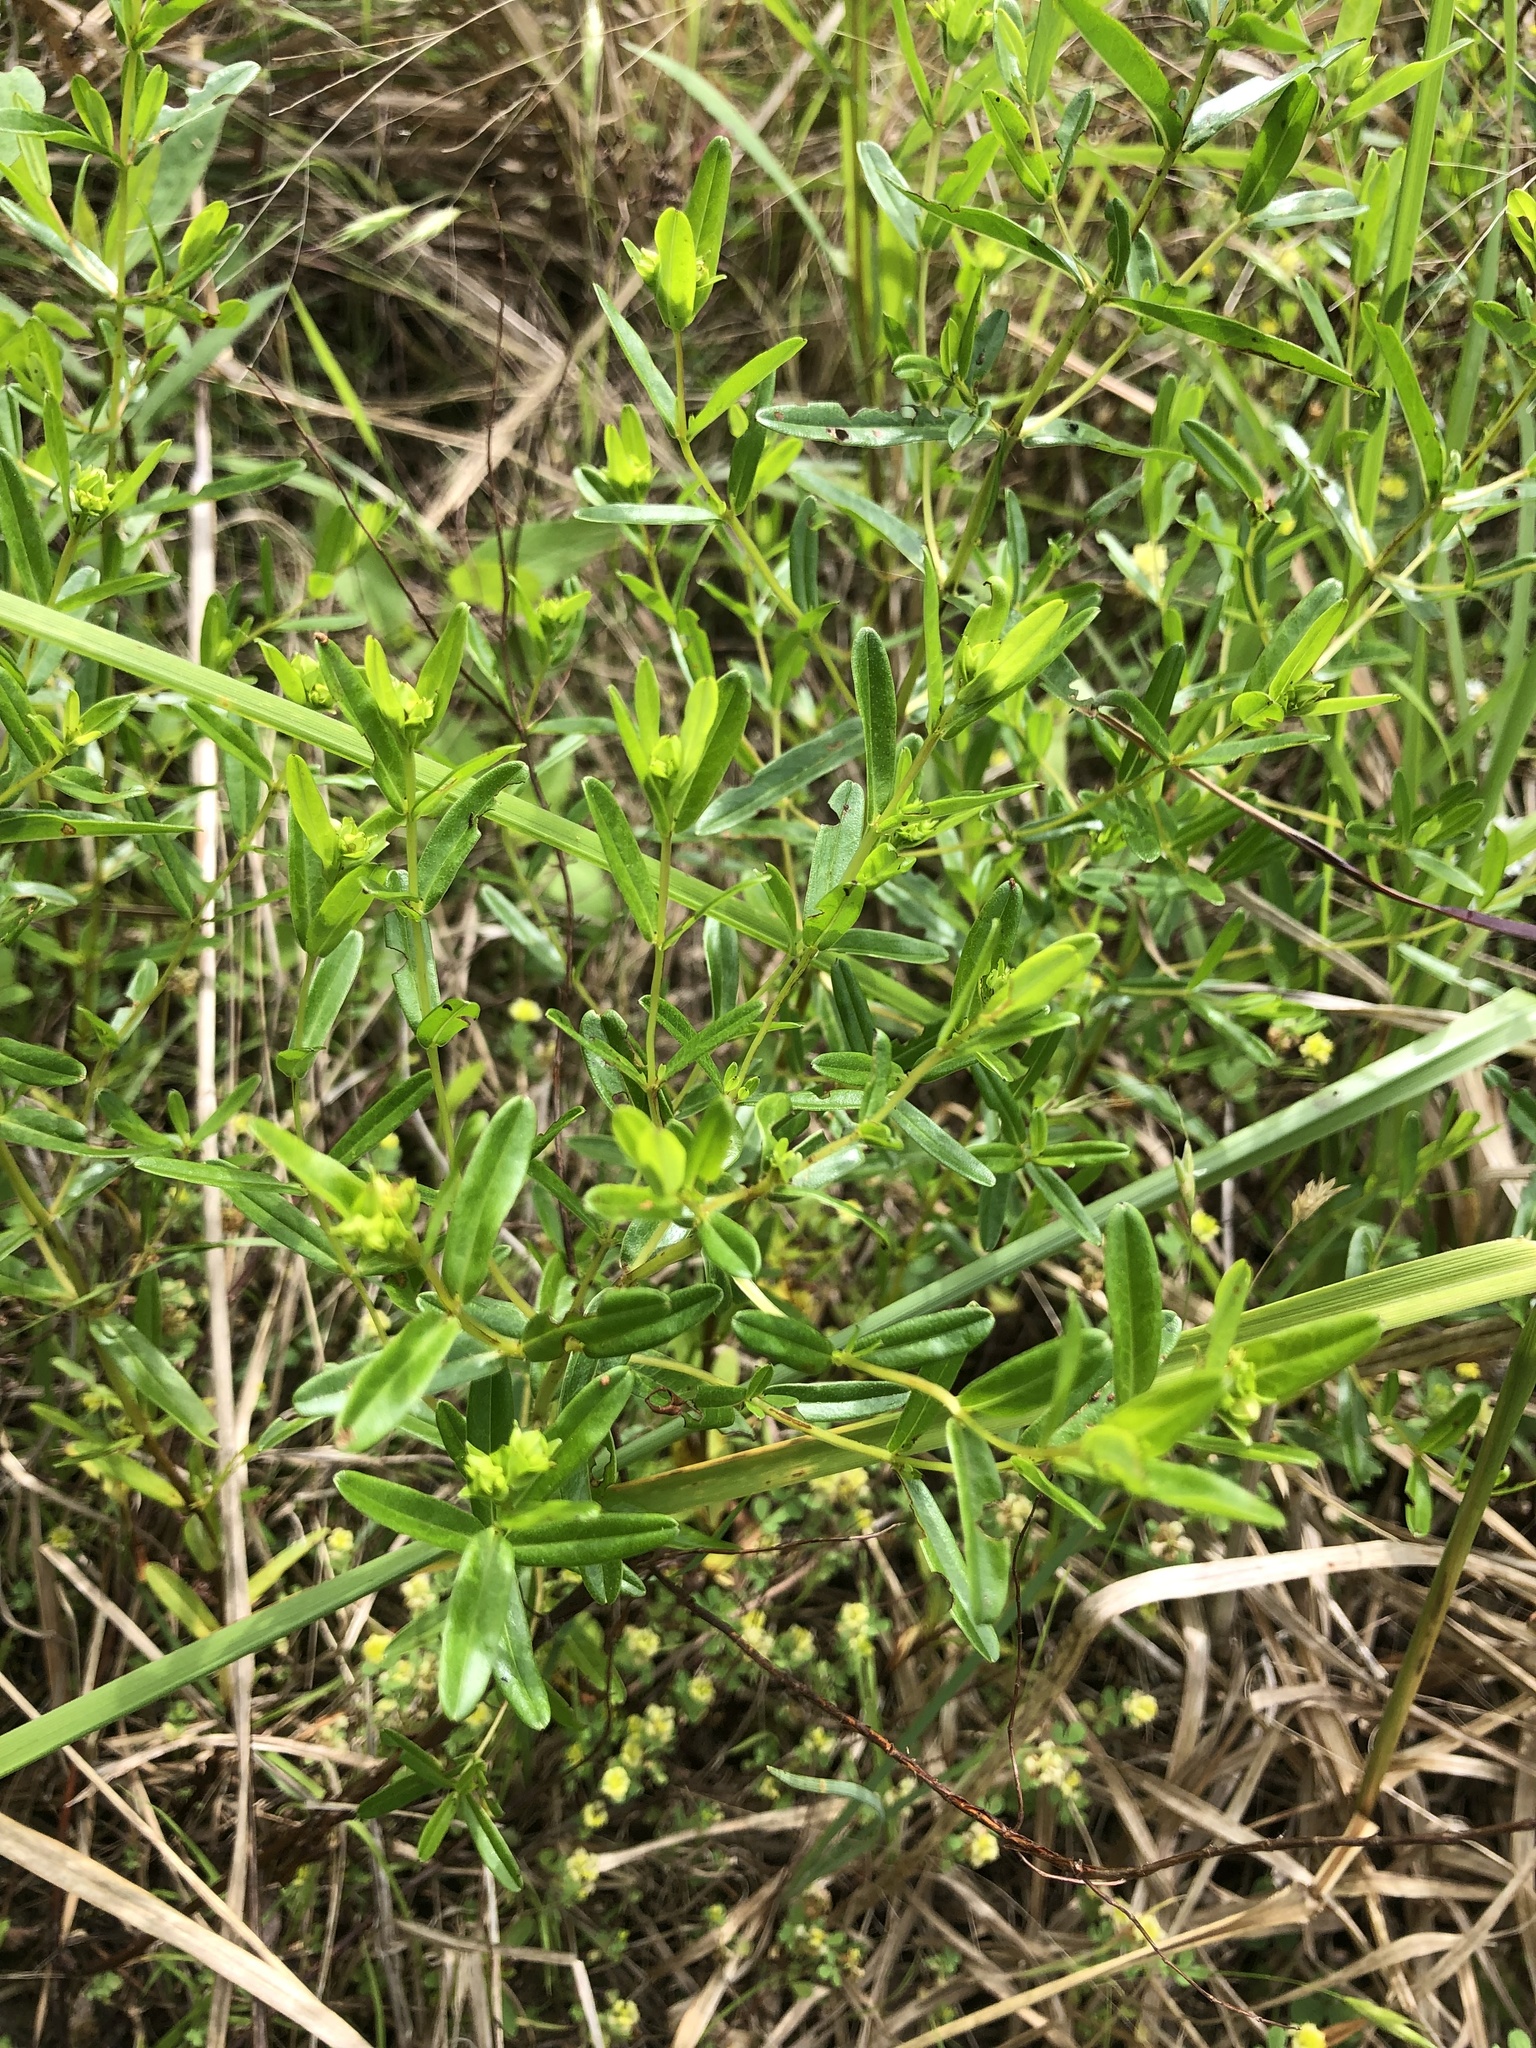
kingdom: Plantae
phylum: Tracheophyta
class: Magnoliopsida
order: Malpighiales
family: Hypericaceae
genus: Hypericum
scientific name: Hypericum sphaerocarpum
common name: Round-fruited st. john's-wort
